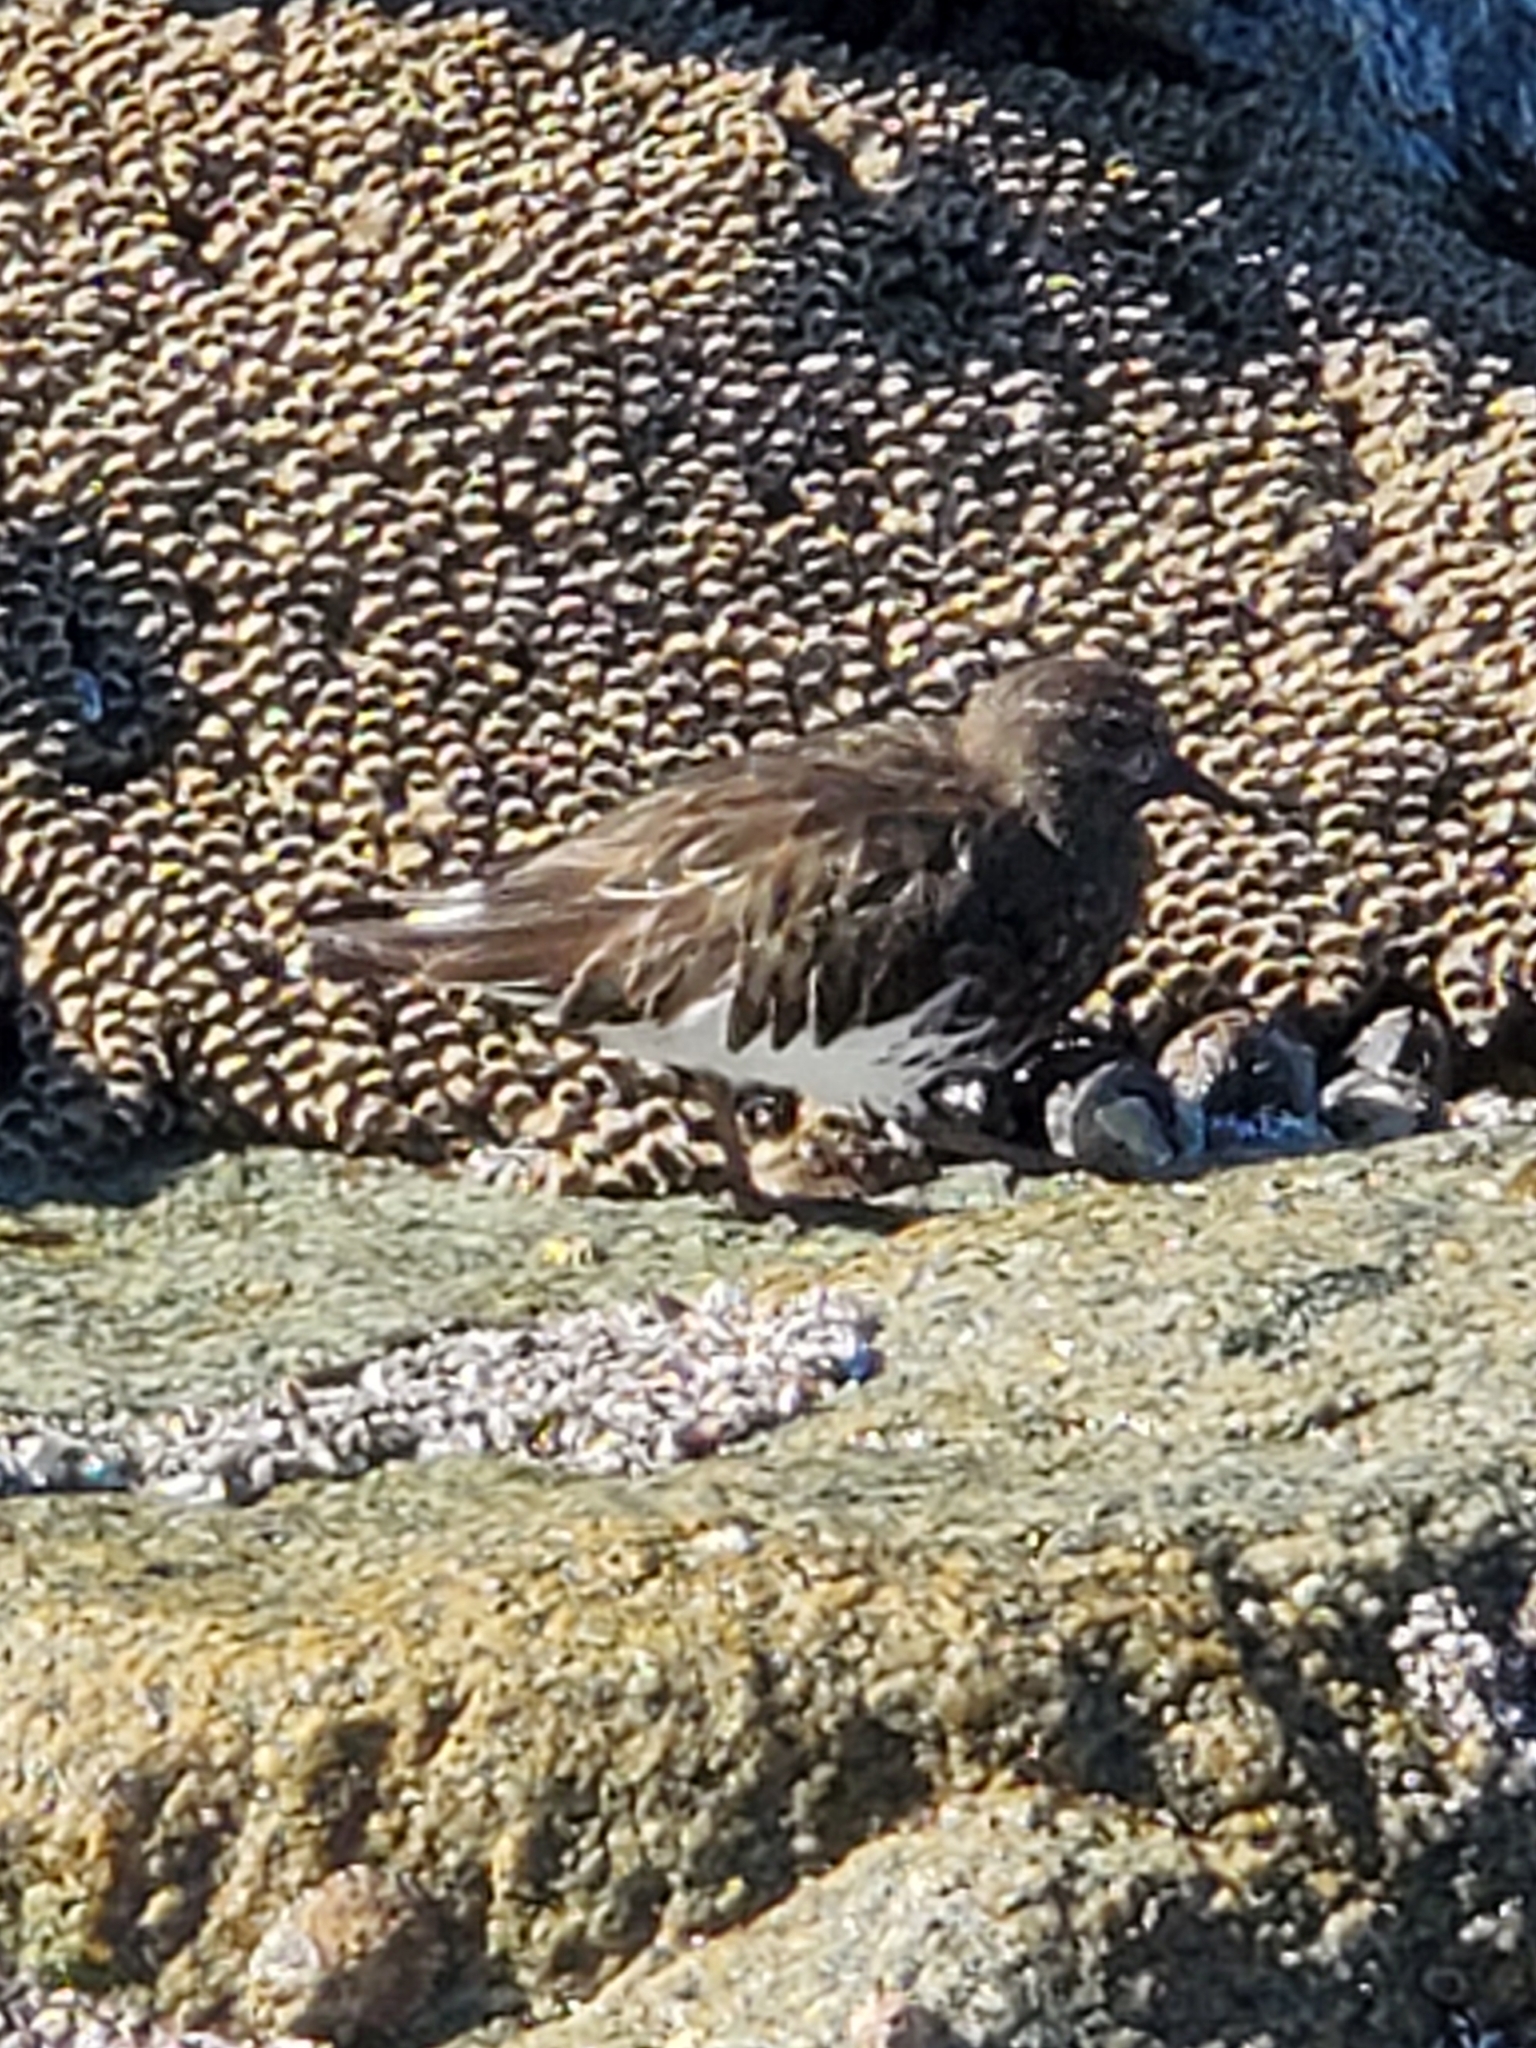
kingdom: Animalia
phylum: Chordata
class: Aves
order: Charadriiformes
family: Scolopacidae
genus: Arenaria
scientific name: Arenaria melanocephala
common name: Black turnstone
